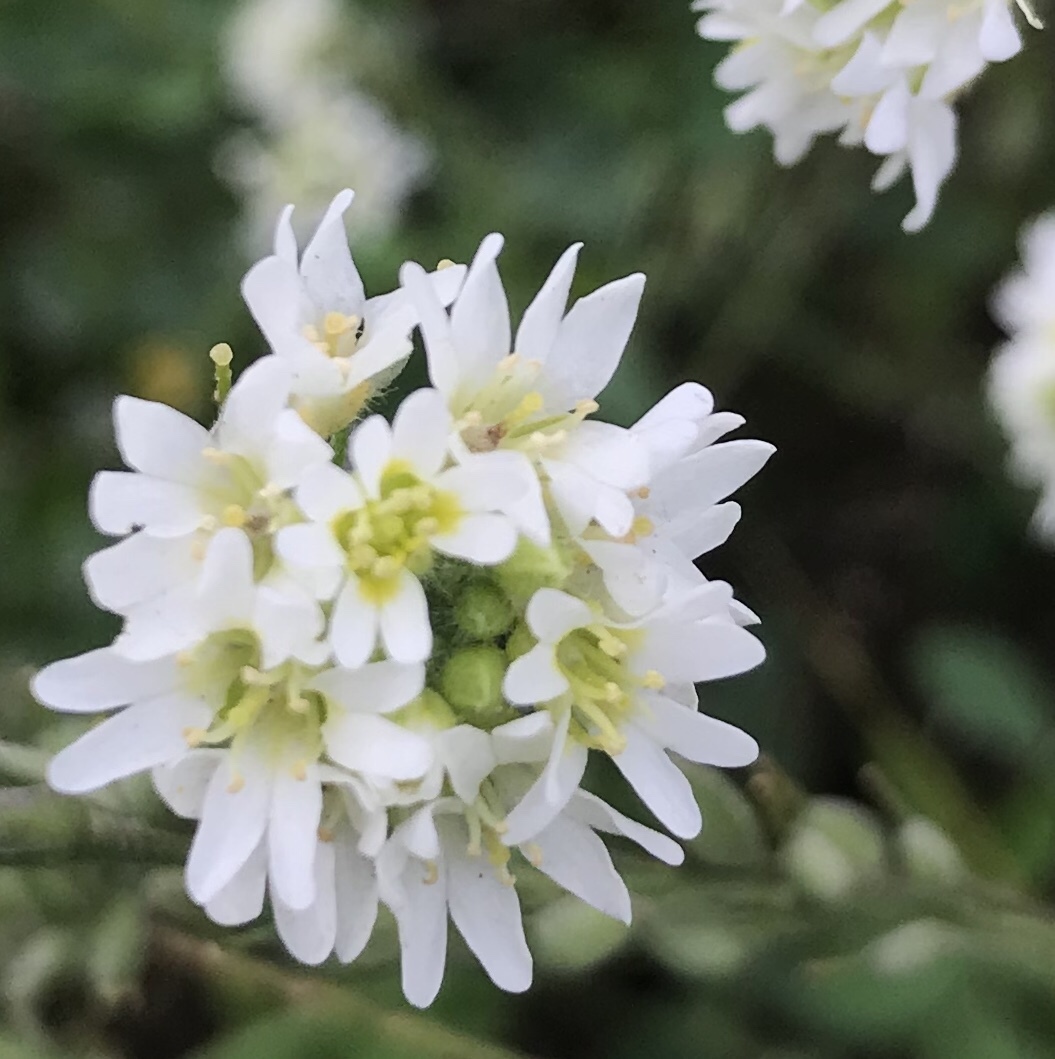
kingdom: Plantae
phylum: Tracheophyta
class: Magnoliopsida
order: Brassicales
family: Brassicaceae
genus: Berteroa
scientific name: Berteroa incana
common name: Hoary alison
